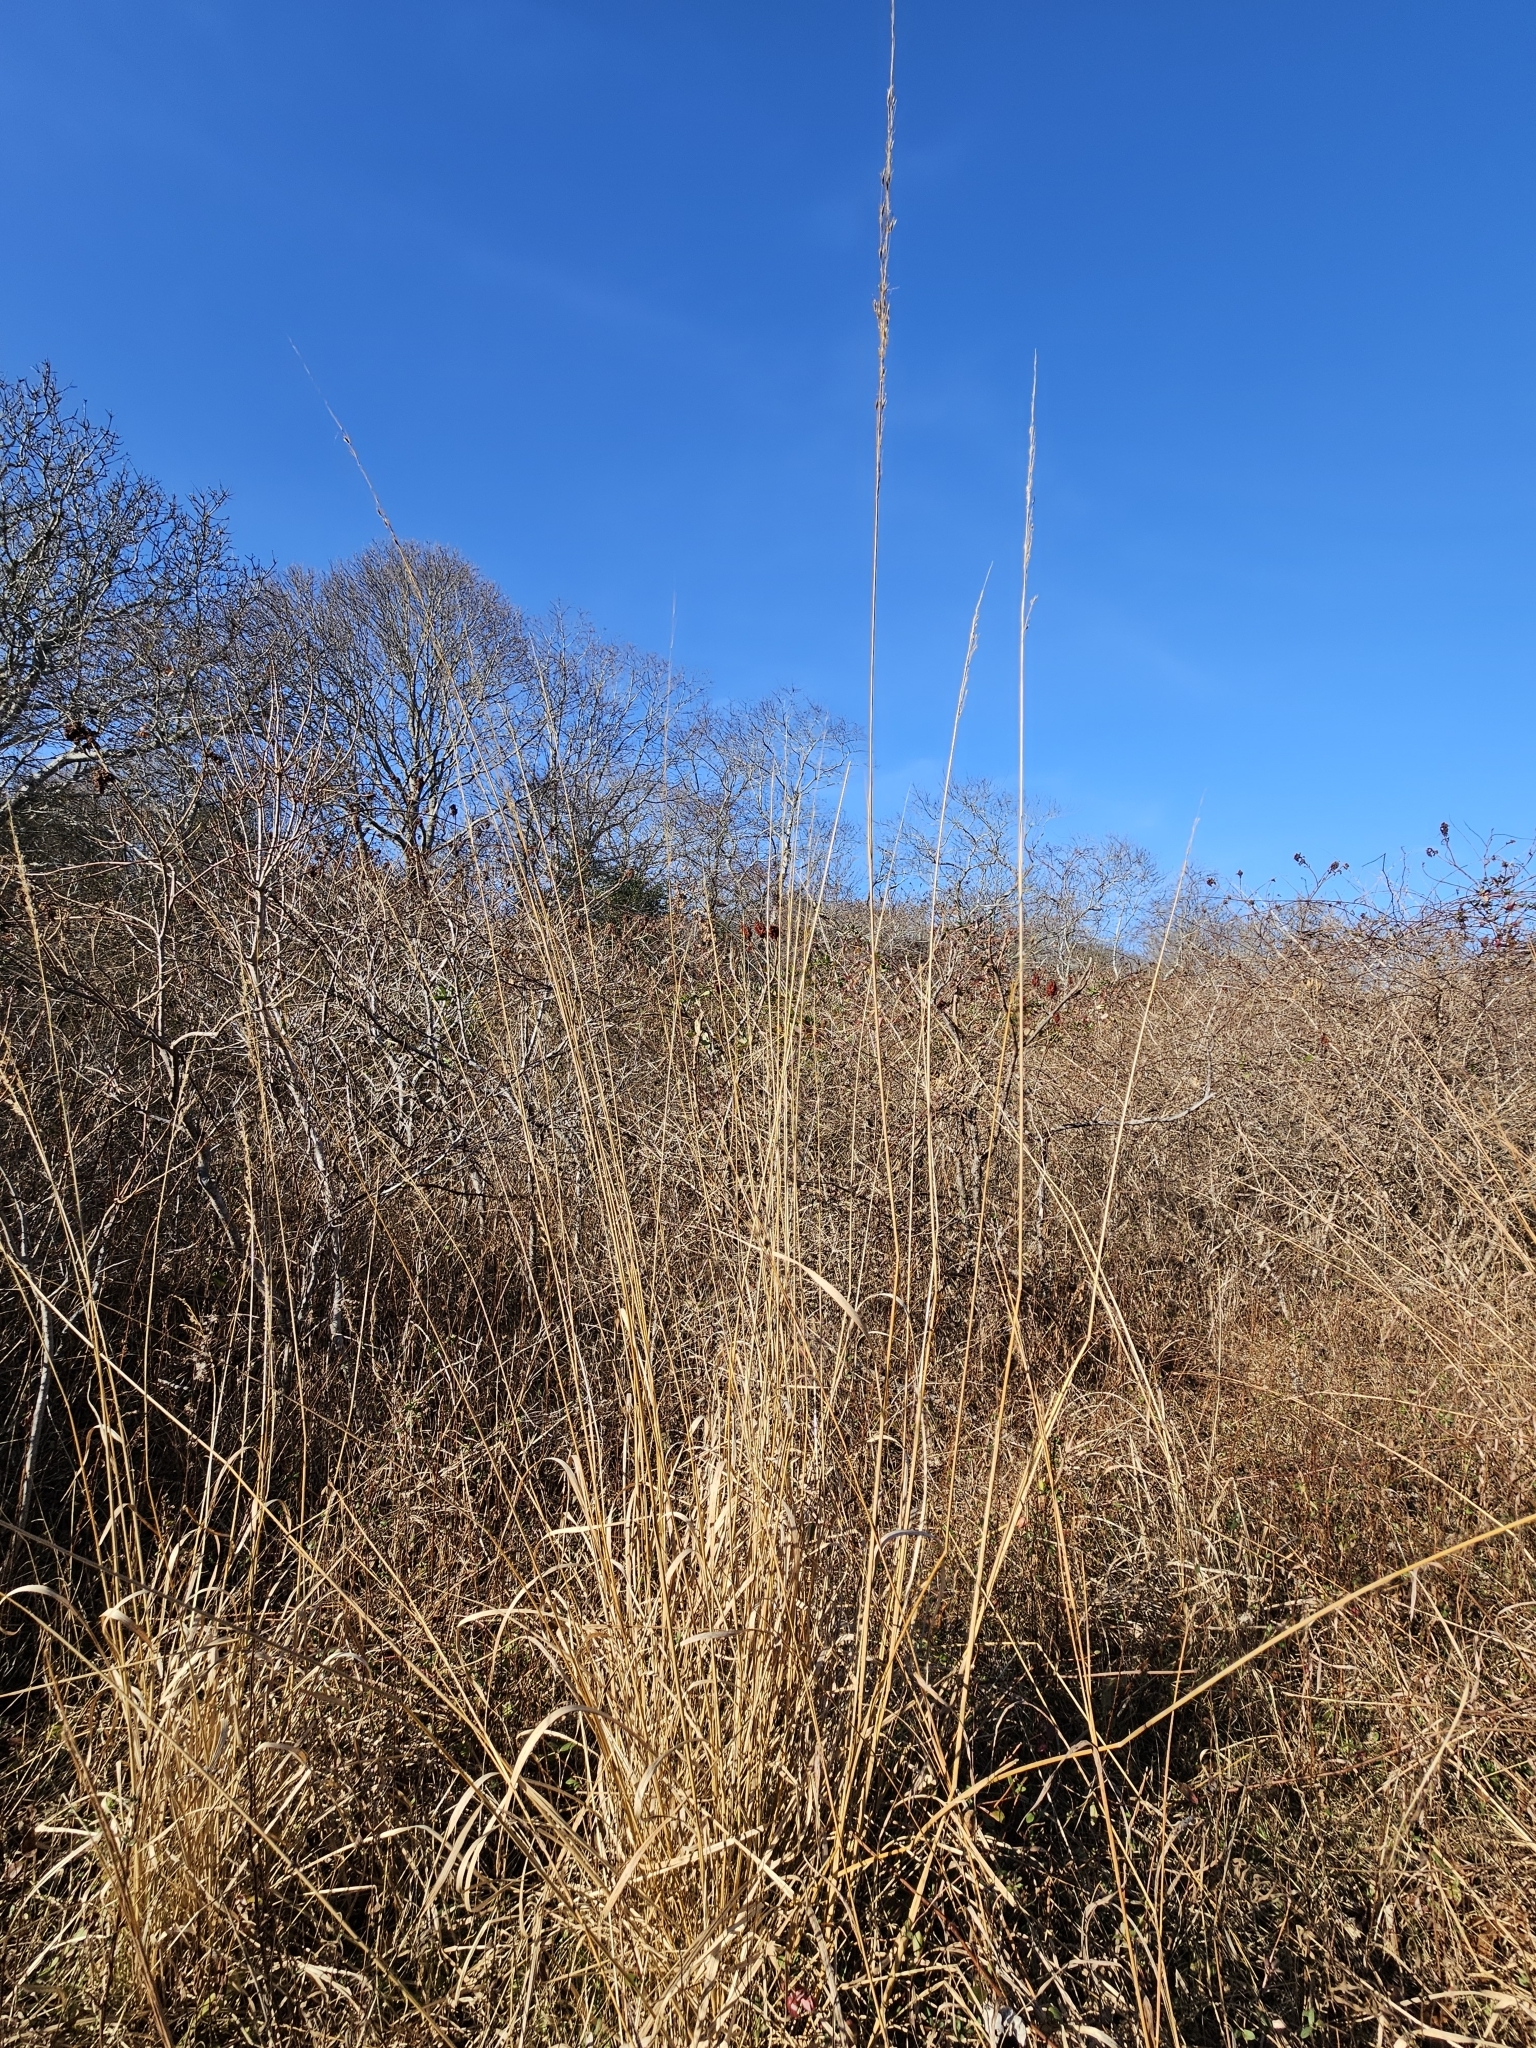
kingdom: Plantae
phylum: Tracheophyta
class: Liliopsida
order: Poales
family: Poaceae
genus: Sorghastrum
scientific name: Sorghastrum nutans
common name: Indian grass
